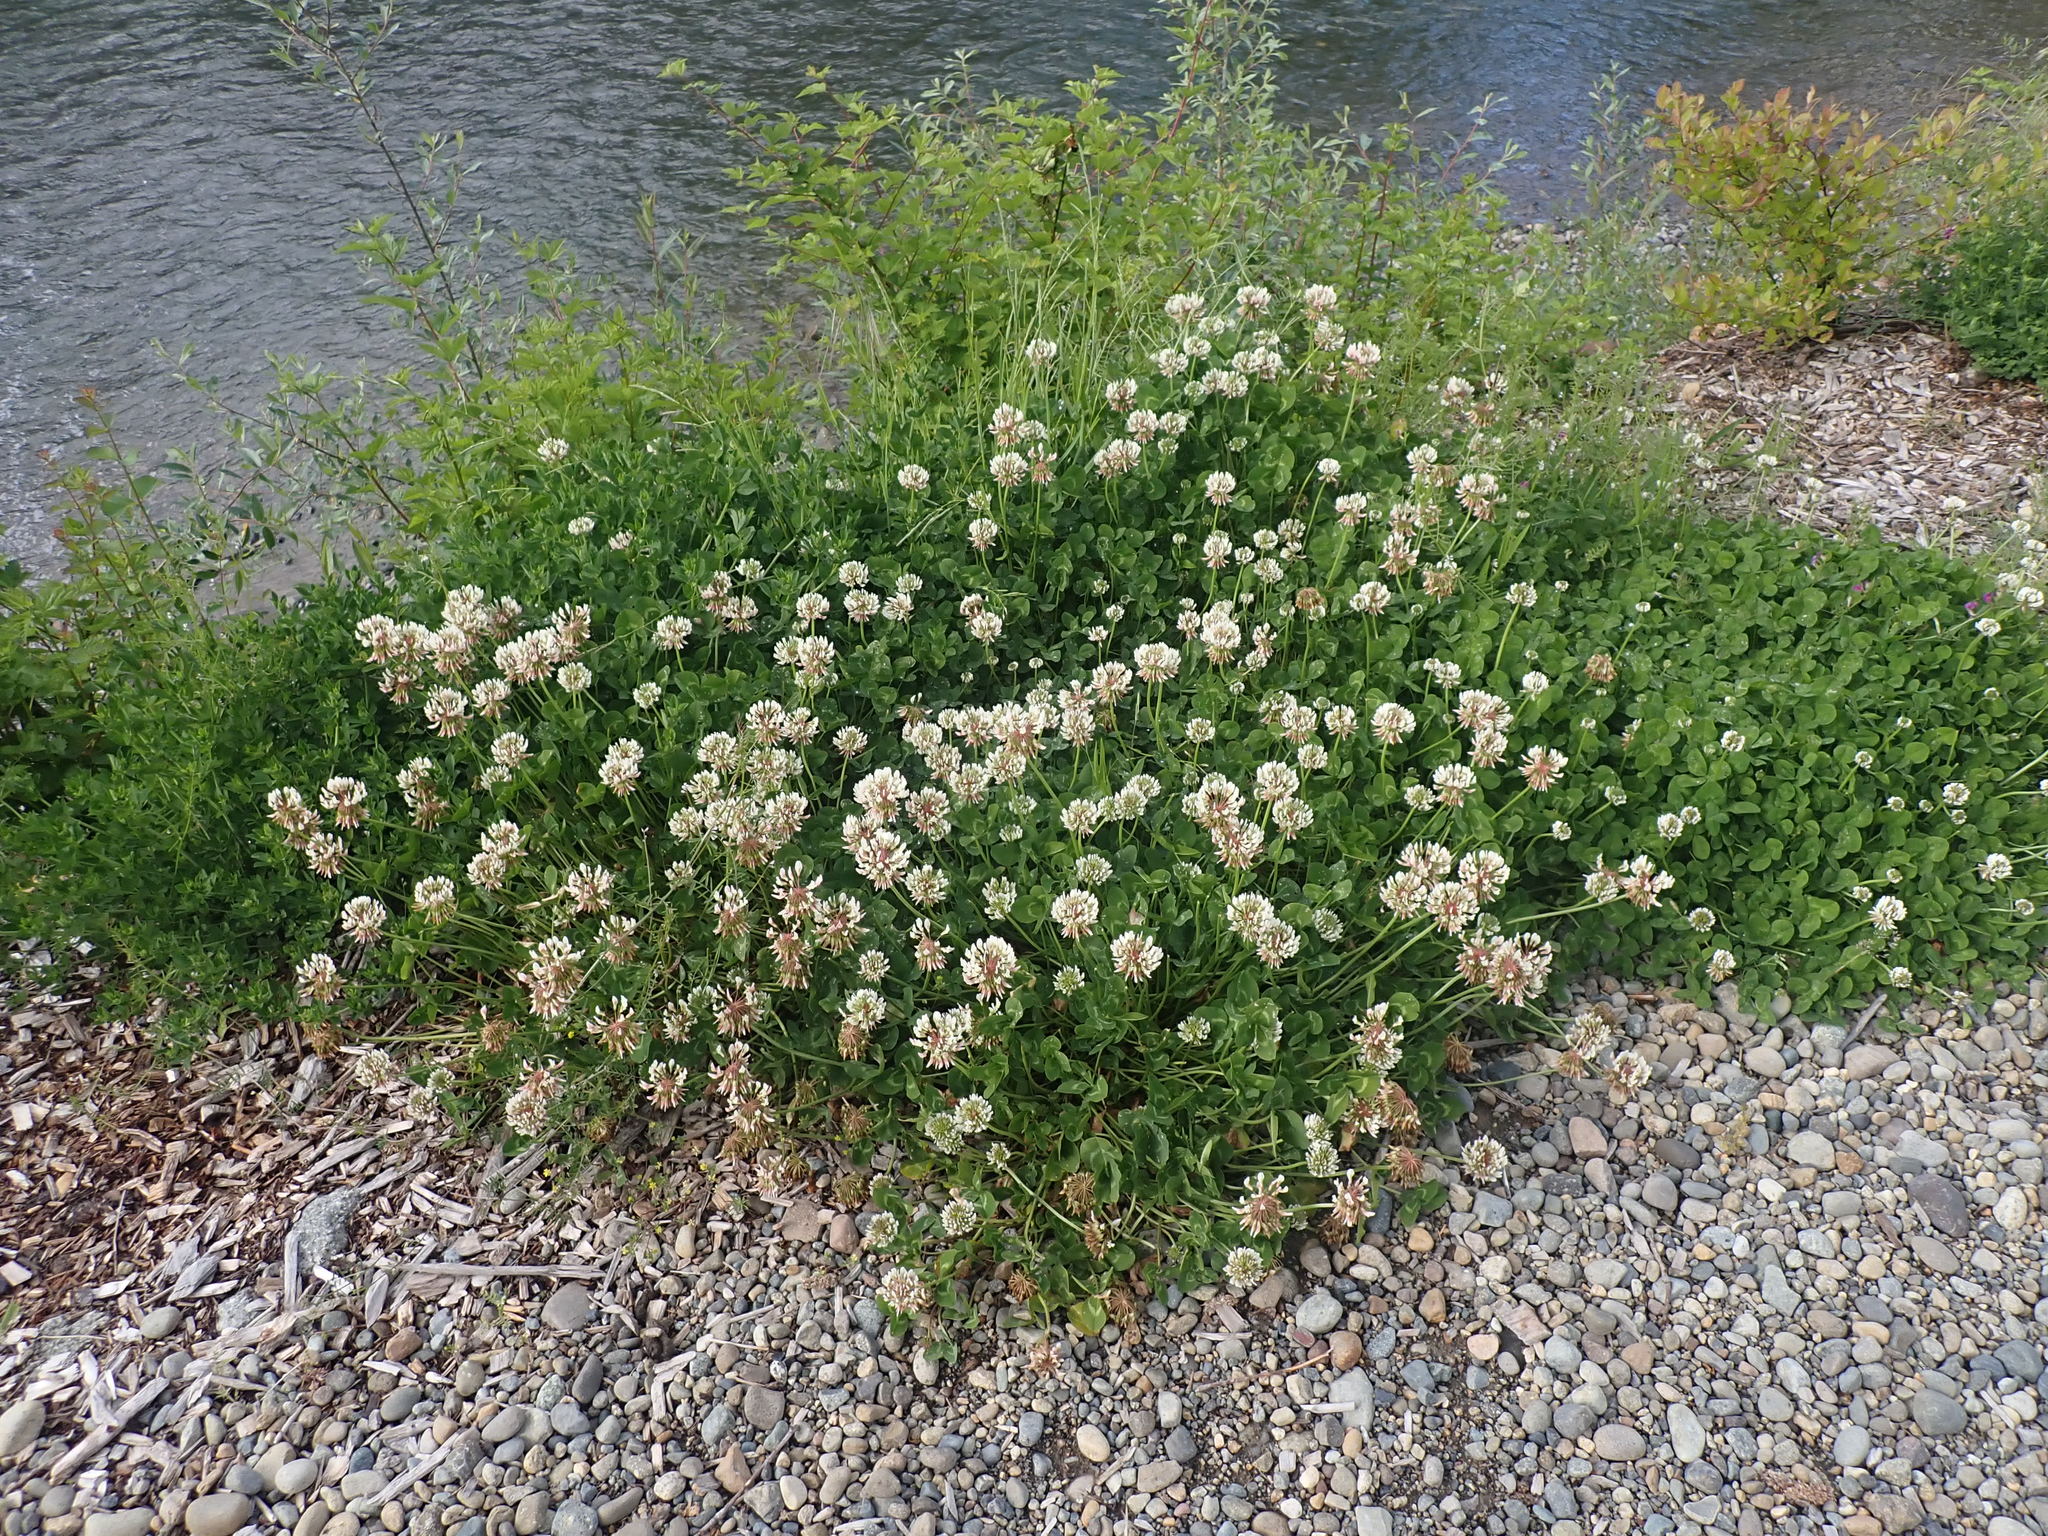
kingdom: Plantae
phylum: Tracheophyta
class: Magnoliopsida
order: Fabales
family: Fabaceae
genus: Trifolium
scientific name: Trifolium repens
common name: White clover
